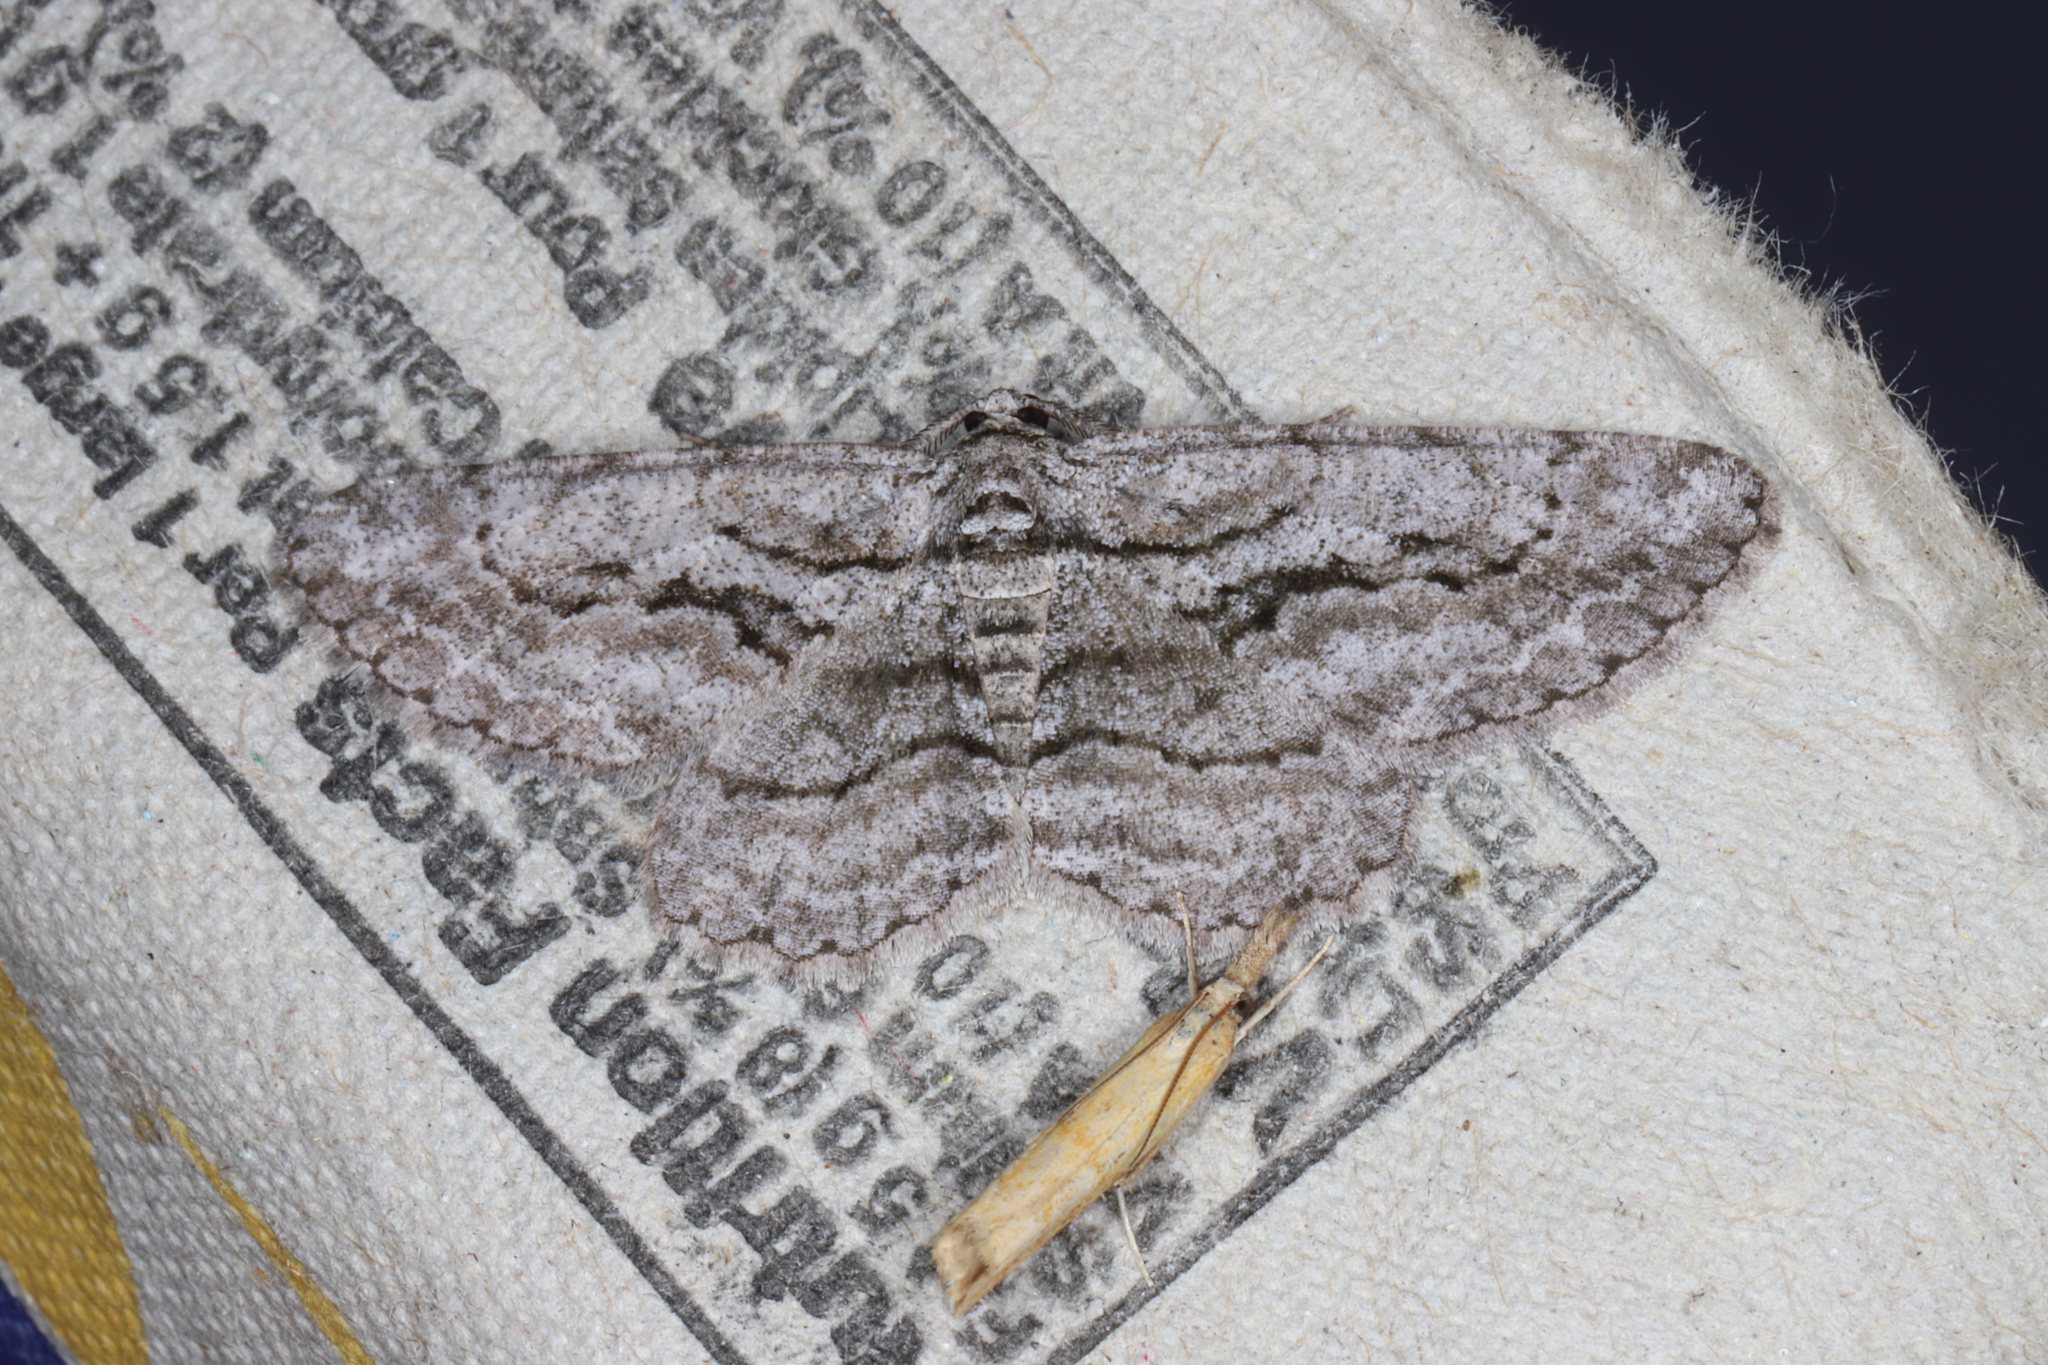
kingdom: Animalia
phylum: Arthropoda
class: Insecta
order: Lepidoptera
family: Geometridae
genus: Anavitrinella
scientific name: Anavitrinella pampinaria
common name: Common gray
